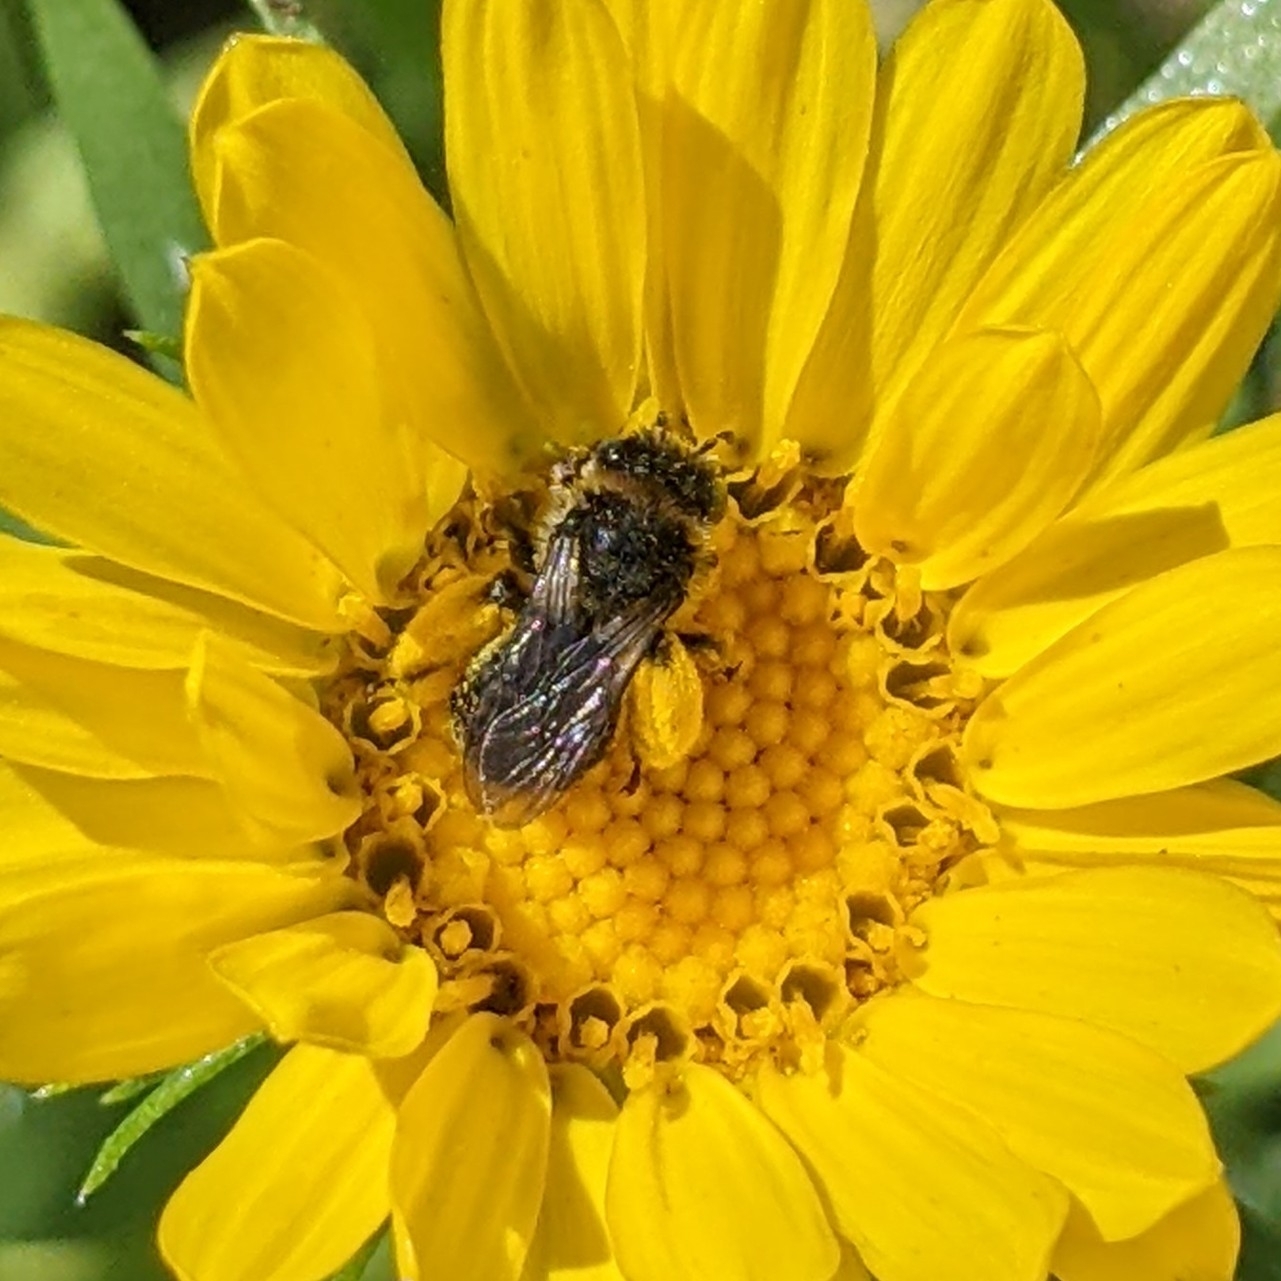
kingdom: Animalia
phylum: Arthropoda
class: Insecta
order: Hymenoptera
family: Apidae
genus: Melissodes
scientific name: Melissodes microstictus
